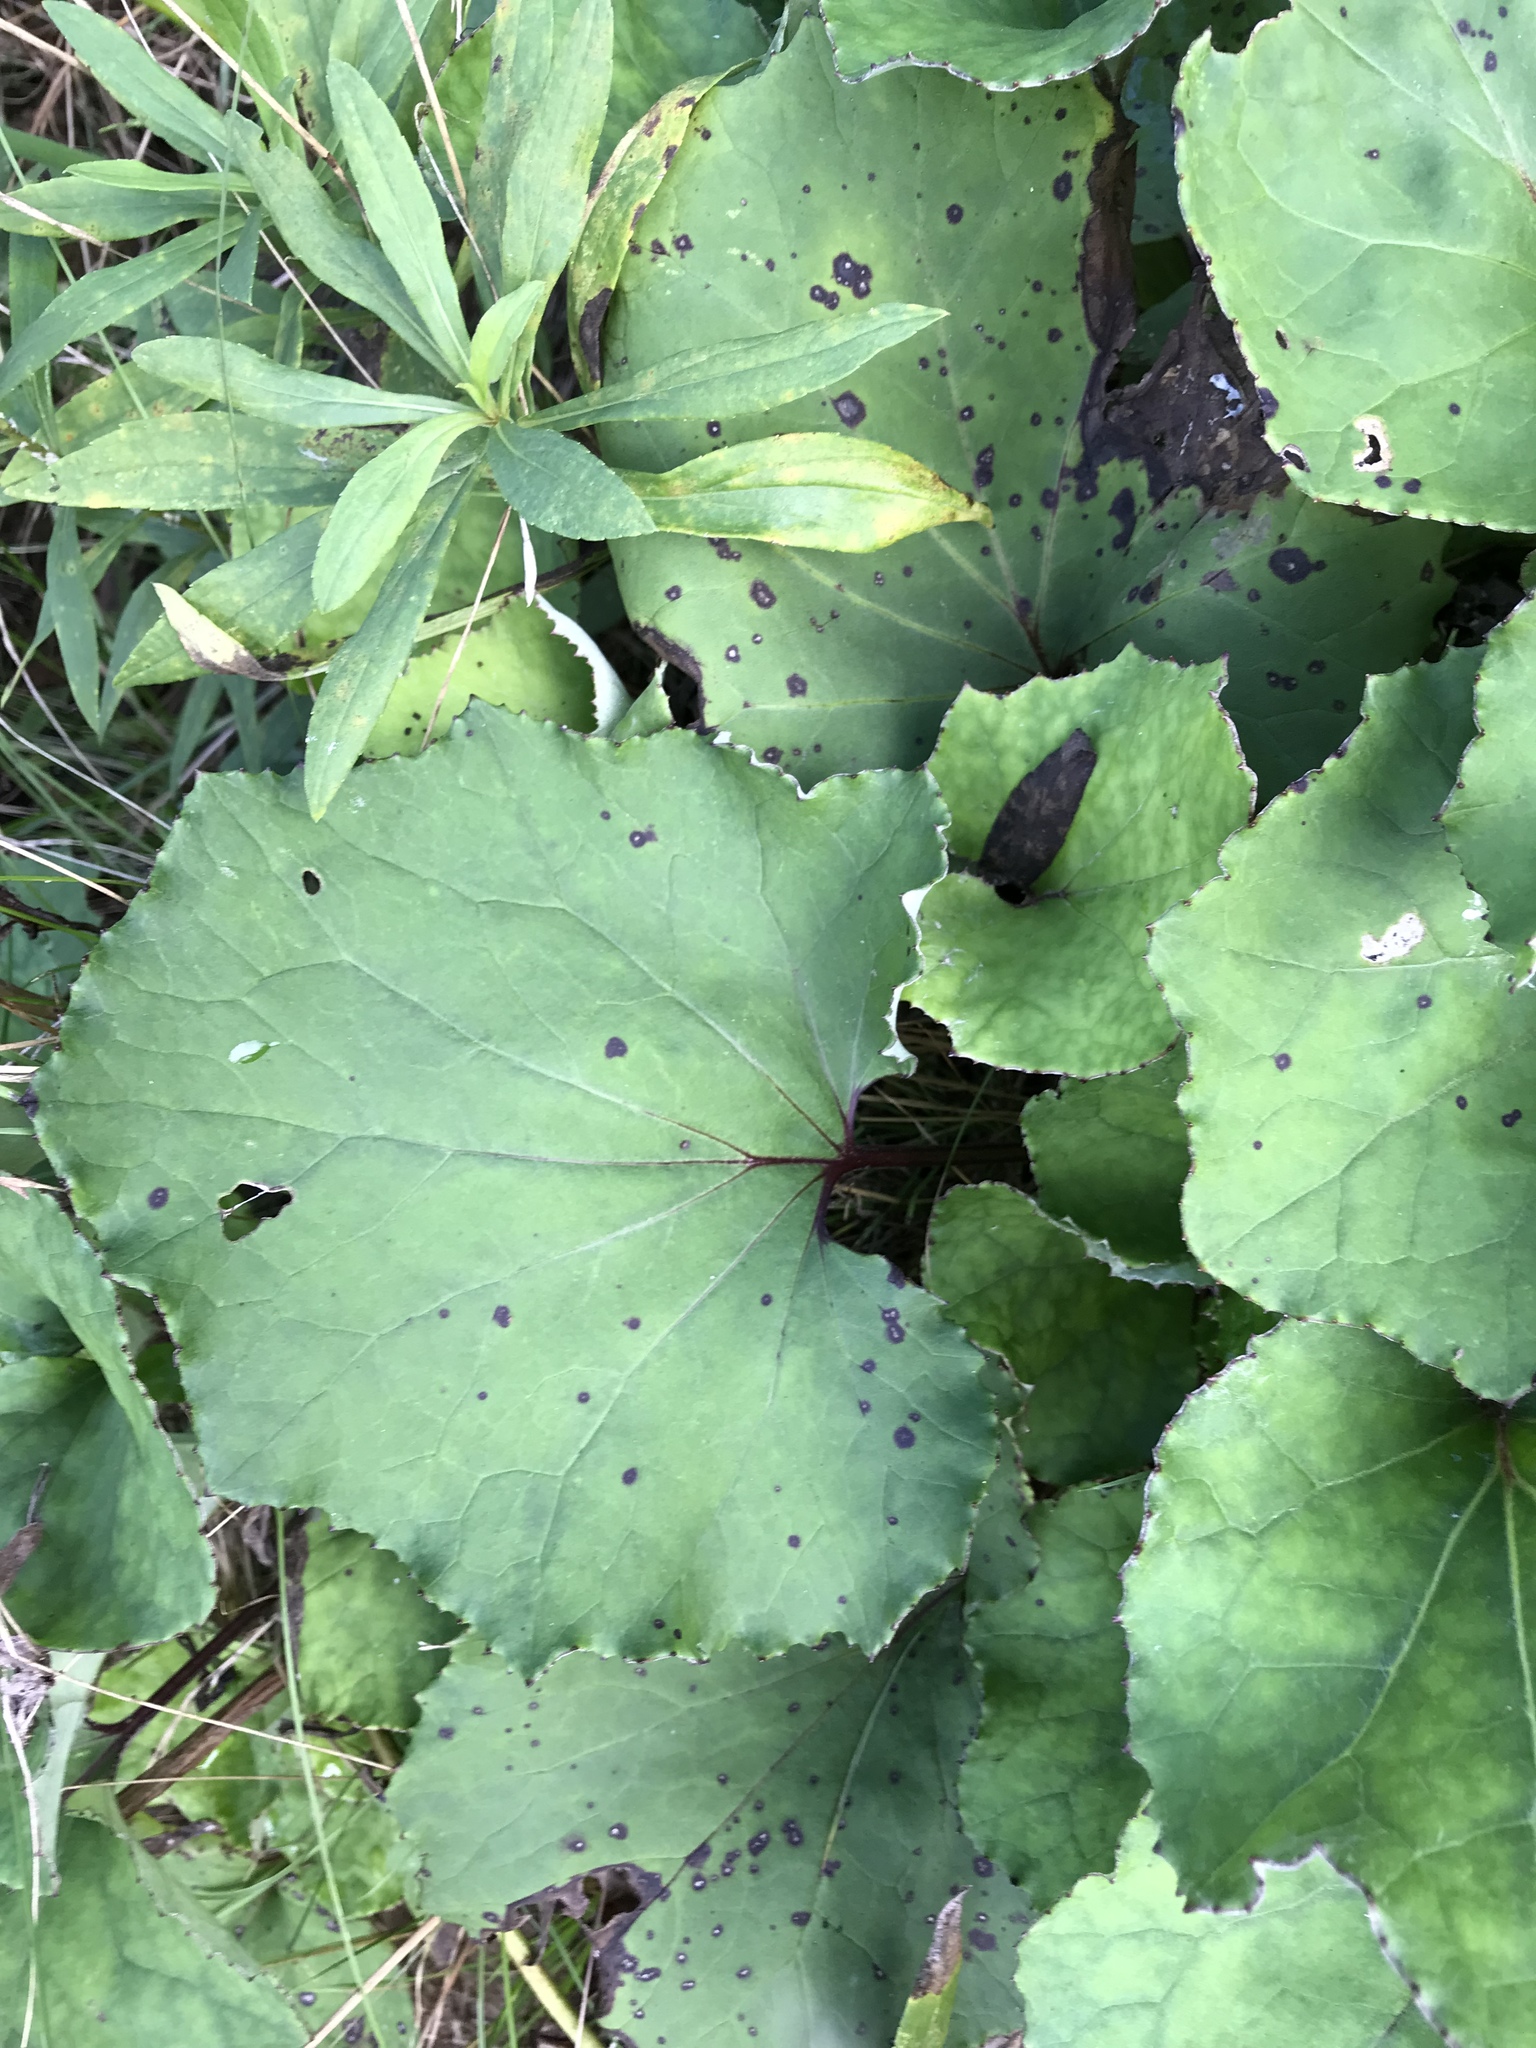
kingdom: Plantae
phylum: Tracheophyta
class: Magnoliopsida
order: Asterales
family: Asteraceae
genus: Tussilago
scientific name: Tussilago farfara
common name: Coltsfoot
